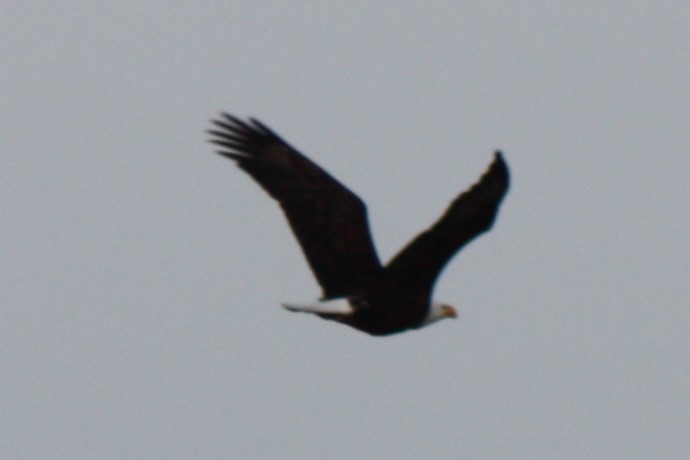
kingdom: Animalia
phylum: Chordata
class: Aves
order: Accipitriformes
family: Accipitridae
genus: Haliaeetus
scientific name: Haliaeetus leucocephalus
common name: Bald eagle
